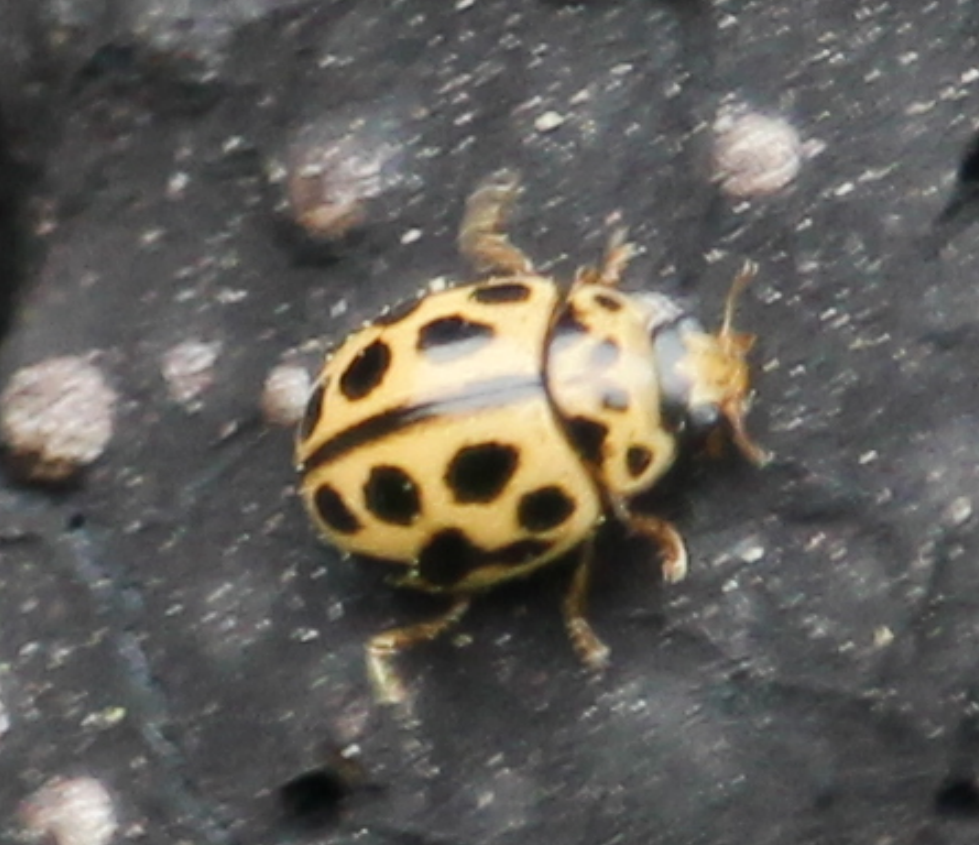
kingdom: Animalia
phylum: Arthropoda
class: Insecta
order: Coleoptera
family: Coccinellidae
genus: Tytthaspis
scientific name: Tytthaspis sedecimpunctata
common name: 16-spot ladybird
